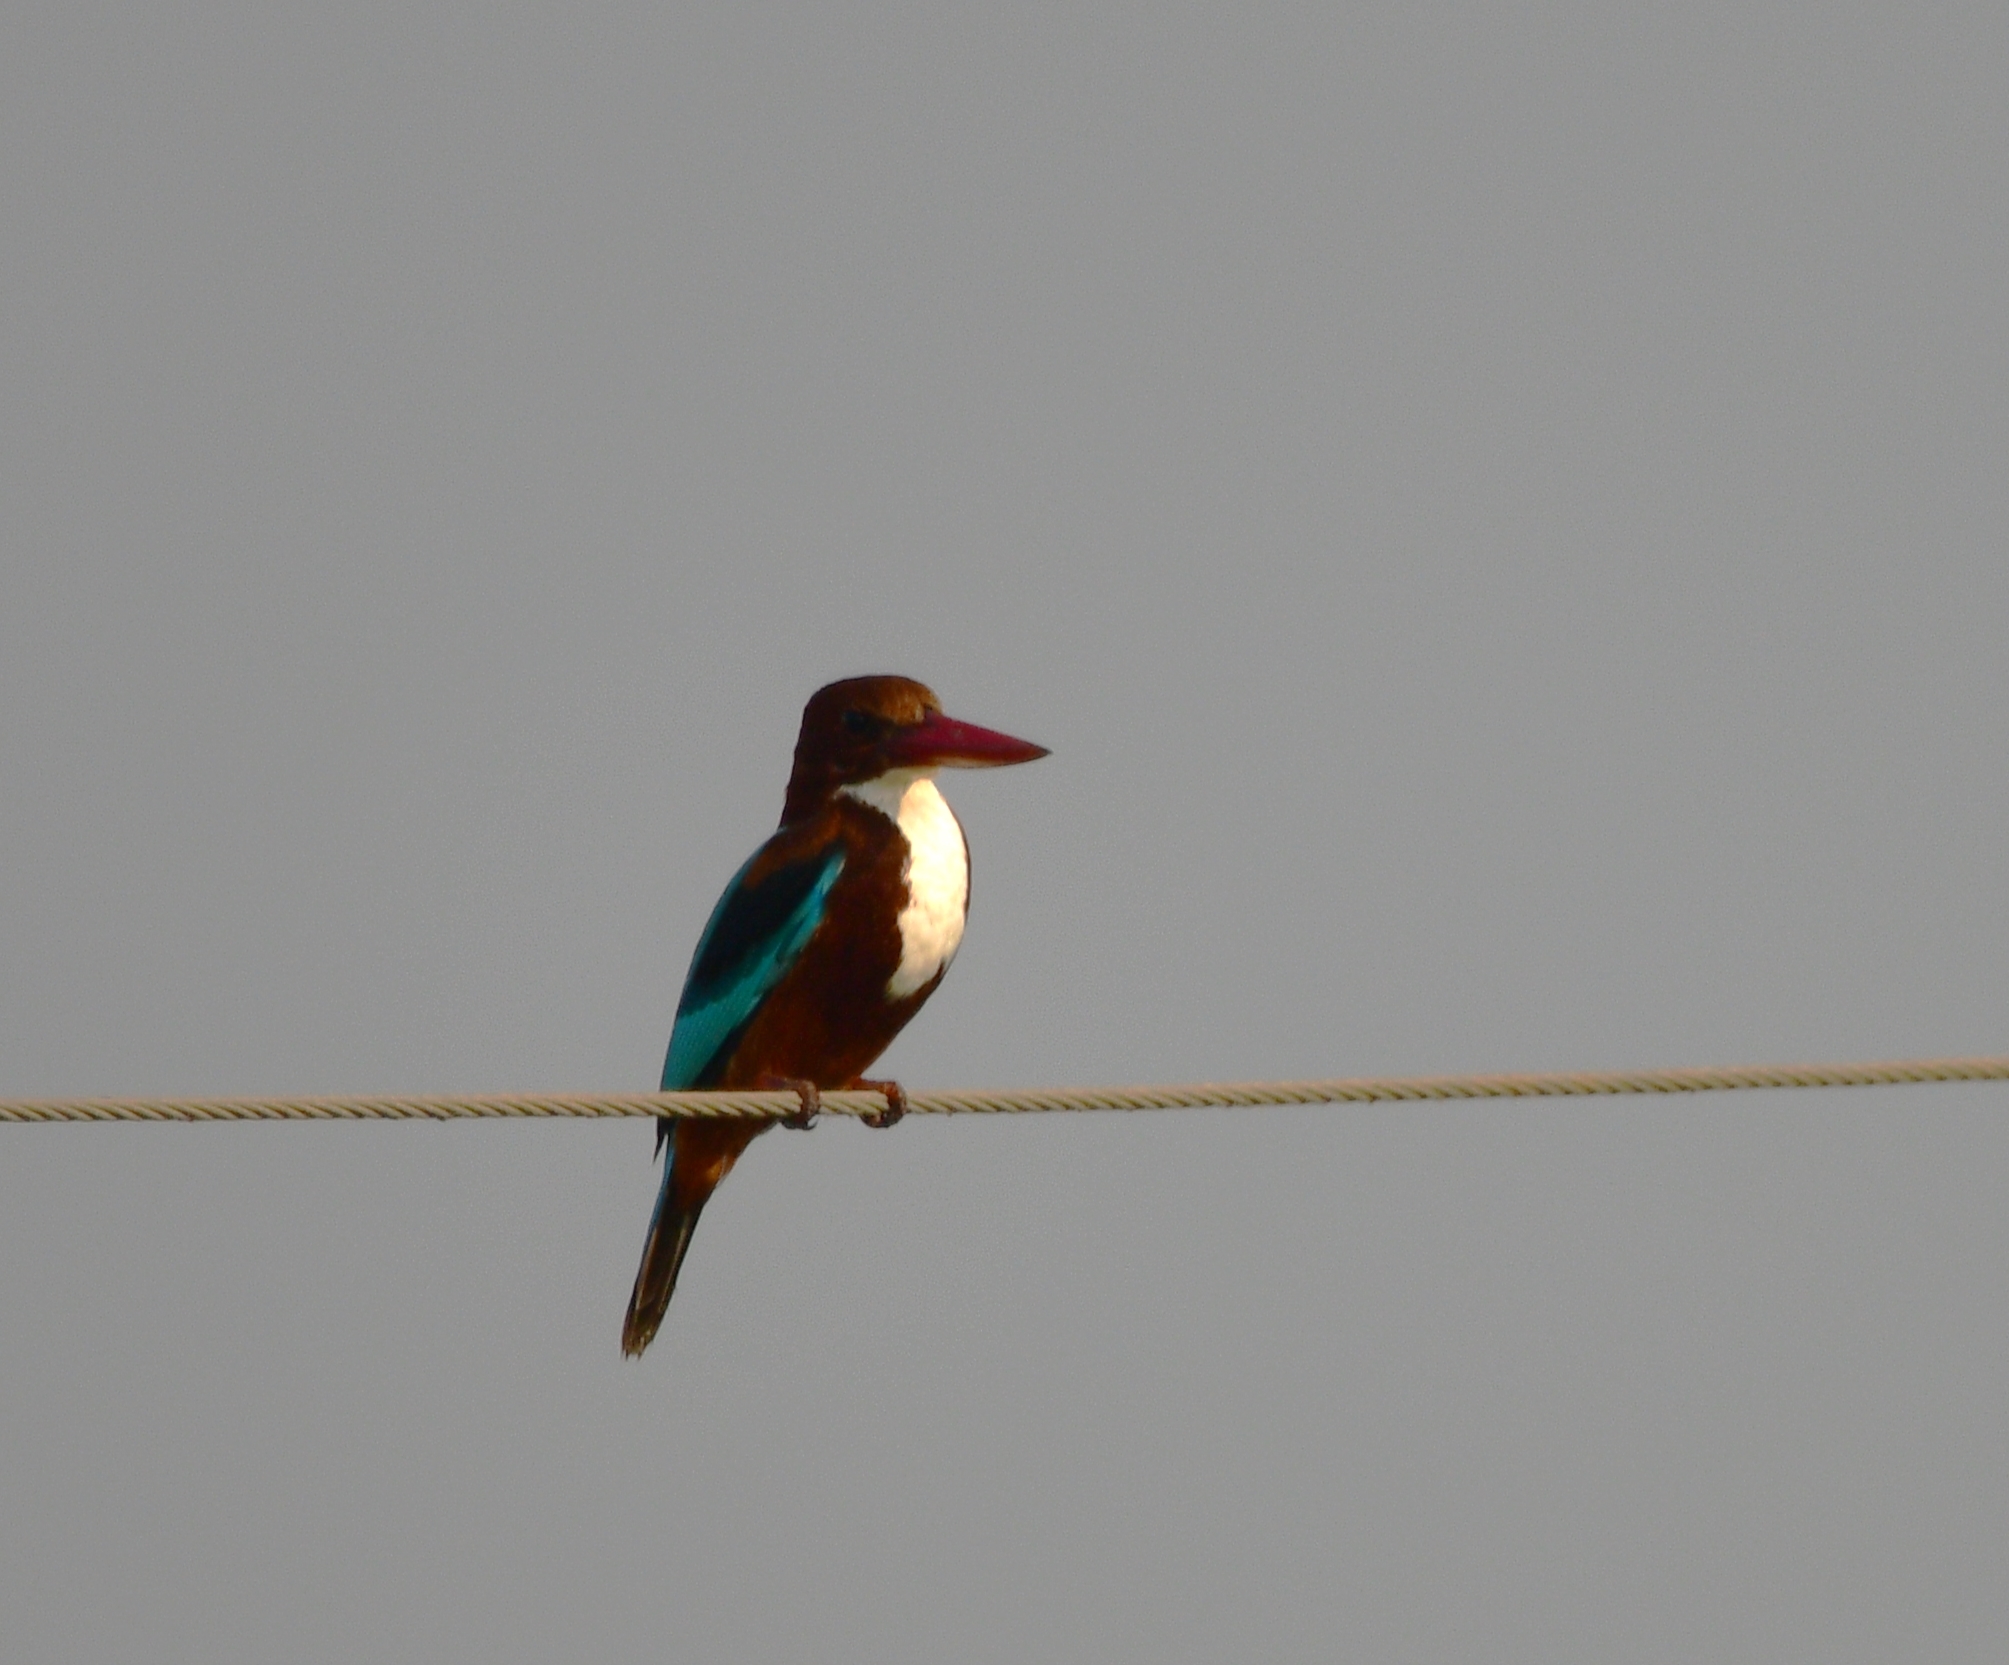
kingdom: Animalia
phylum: Chordata
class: Aves
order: Coraciiformes
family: Alcedinidae
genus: Halcyon
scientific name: Halcyon smyrnensis
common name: White-throated kingfisher
